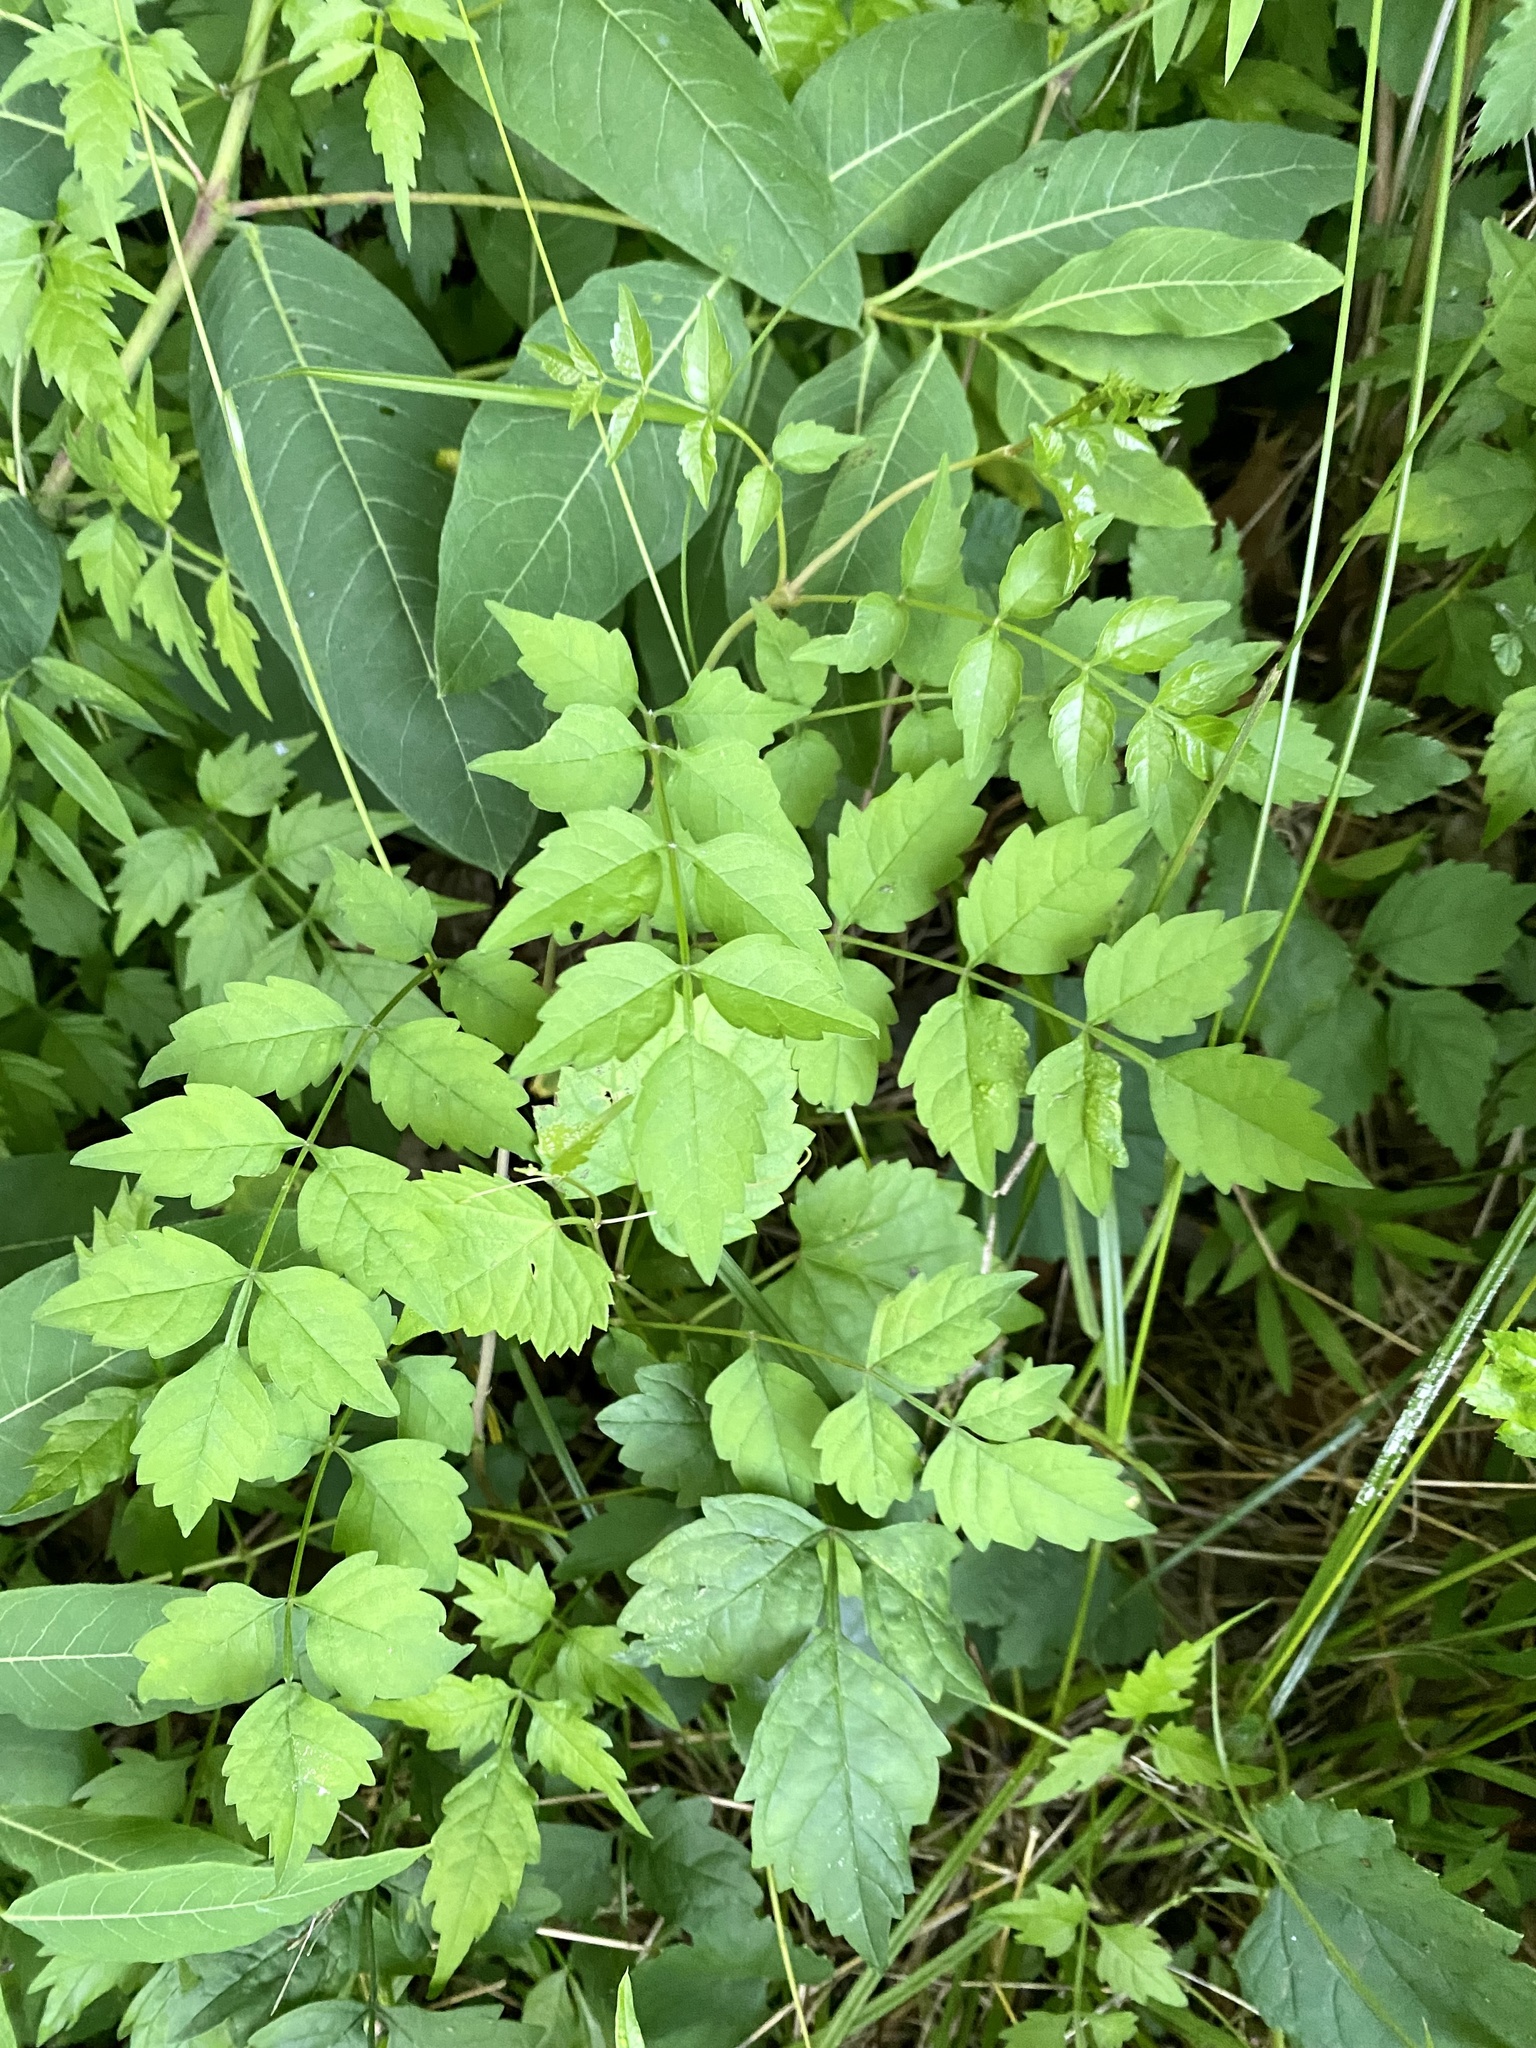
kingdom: Plantae
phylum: Tracheophyta
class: Magnoliopsida
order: Lamiales
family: Bignoniaceae
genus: Campsis
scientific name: Campsis radicans
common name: Trumpet-creeper
